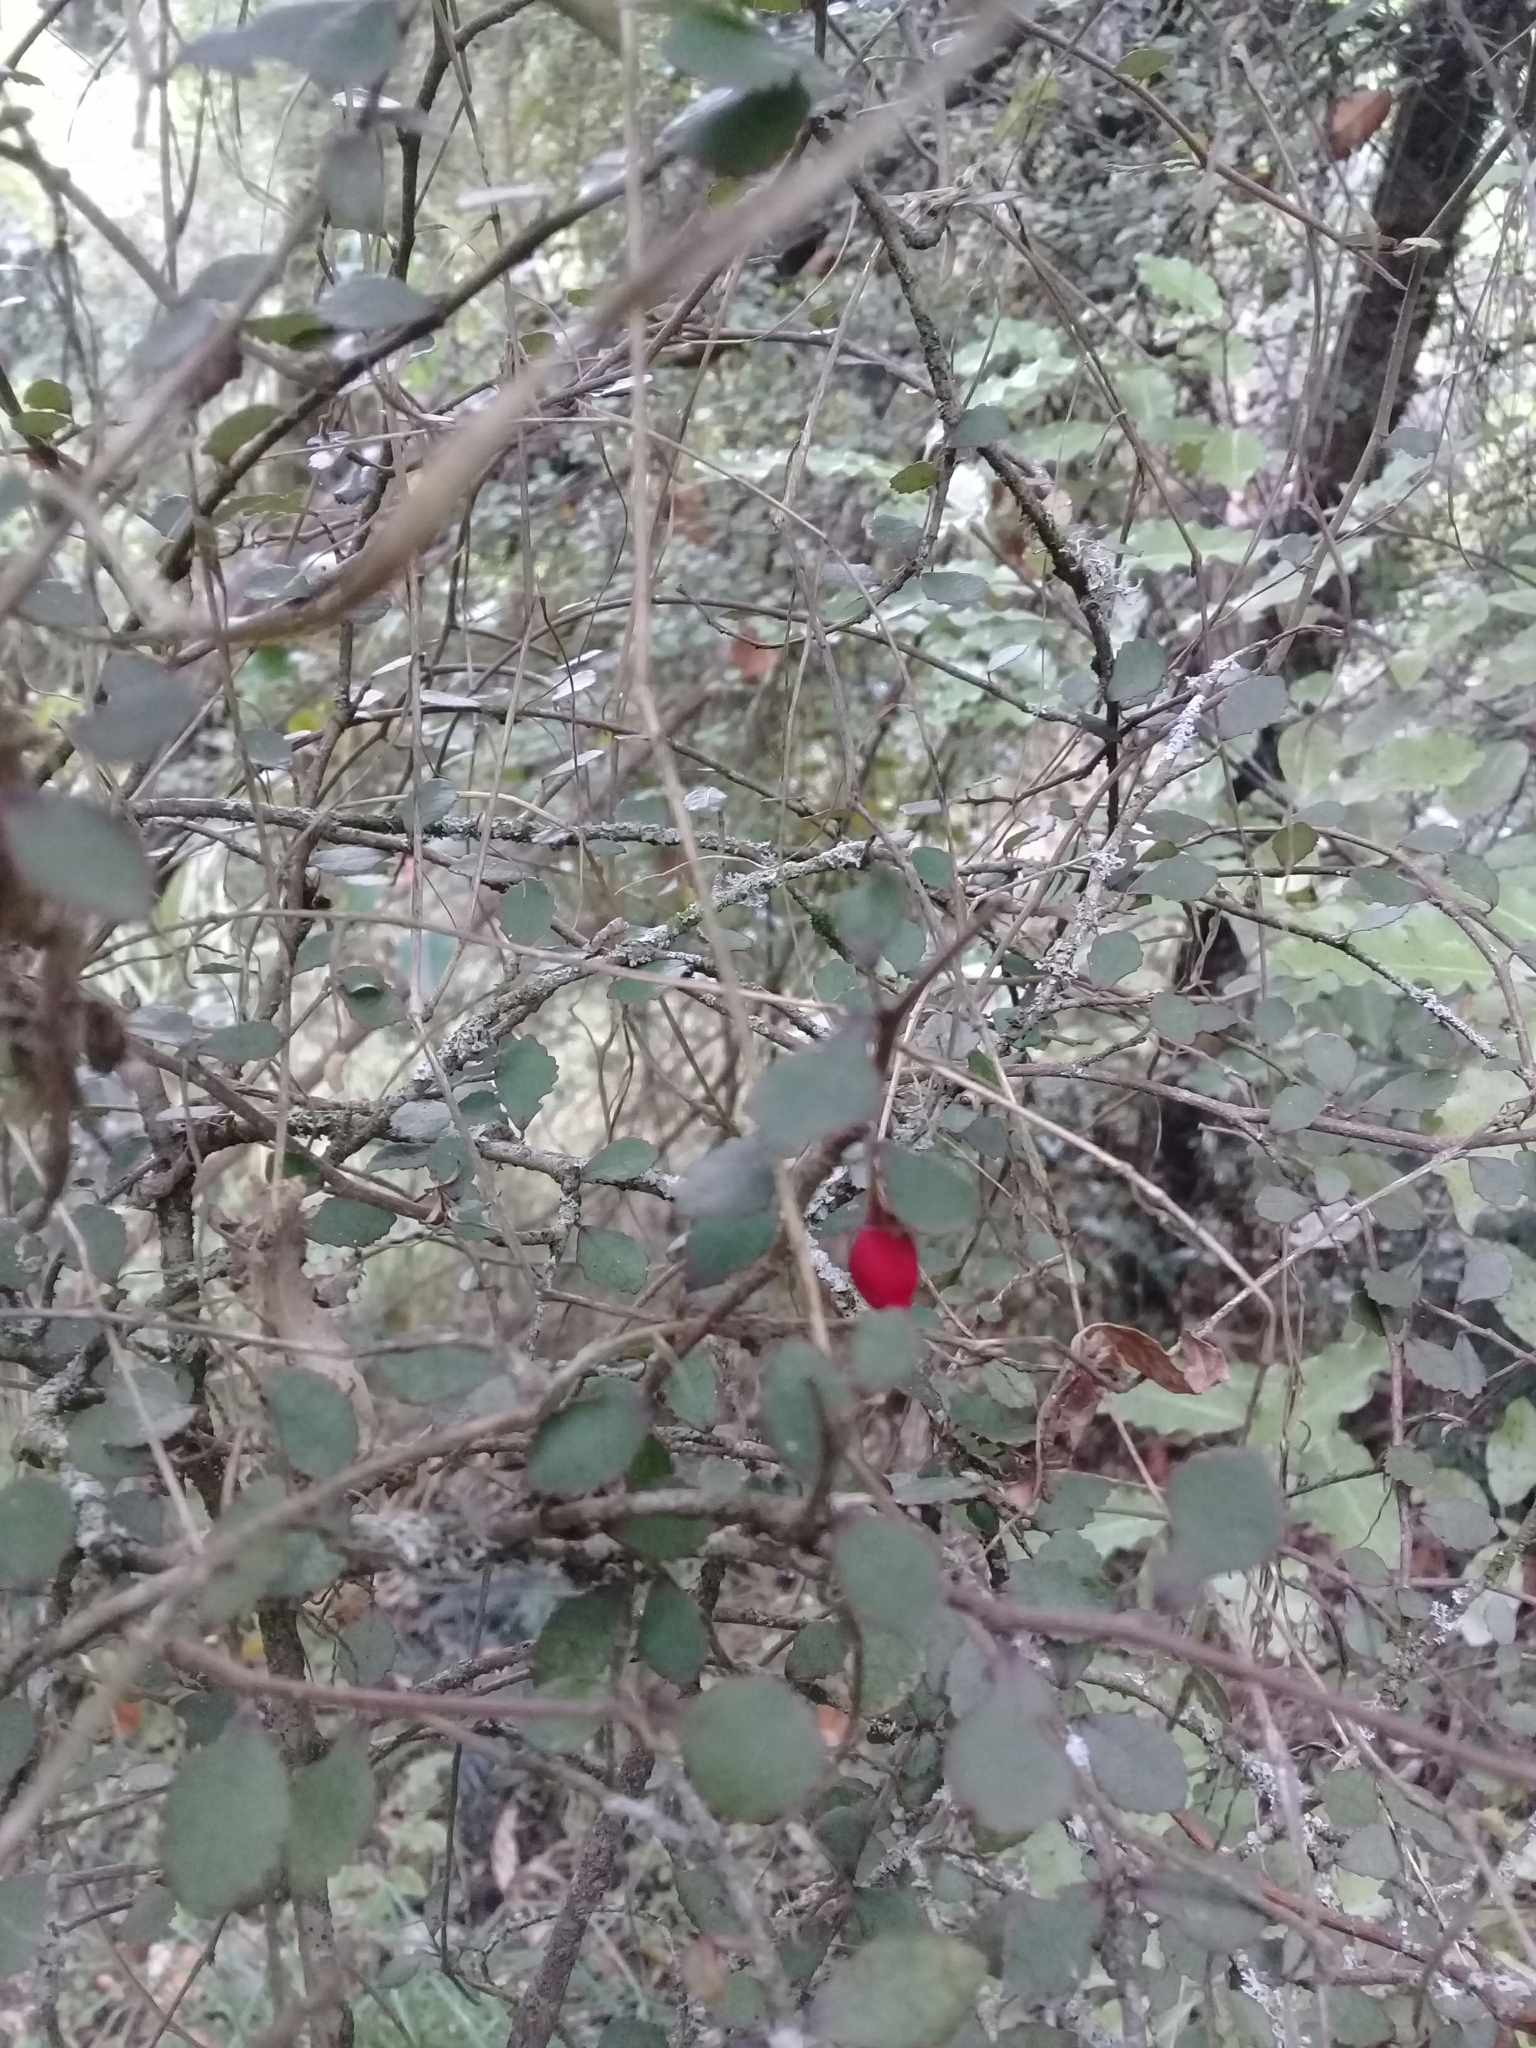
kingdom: Plantae
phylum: Tracheophyta
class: Magnoliopsida
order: Rosales
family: Moraceae
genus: Paratrophis
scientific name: Paratrophis microphylla
